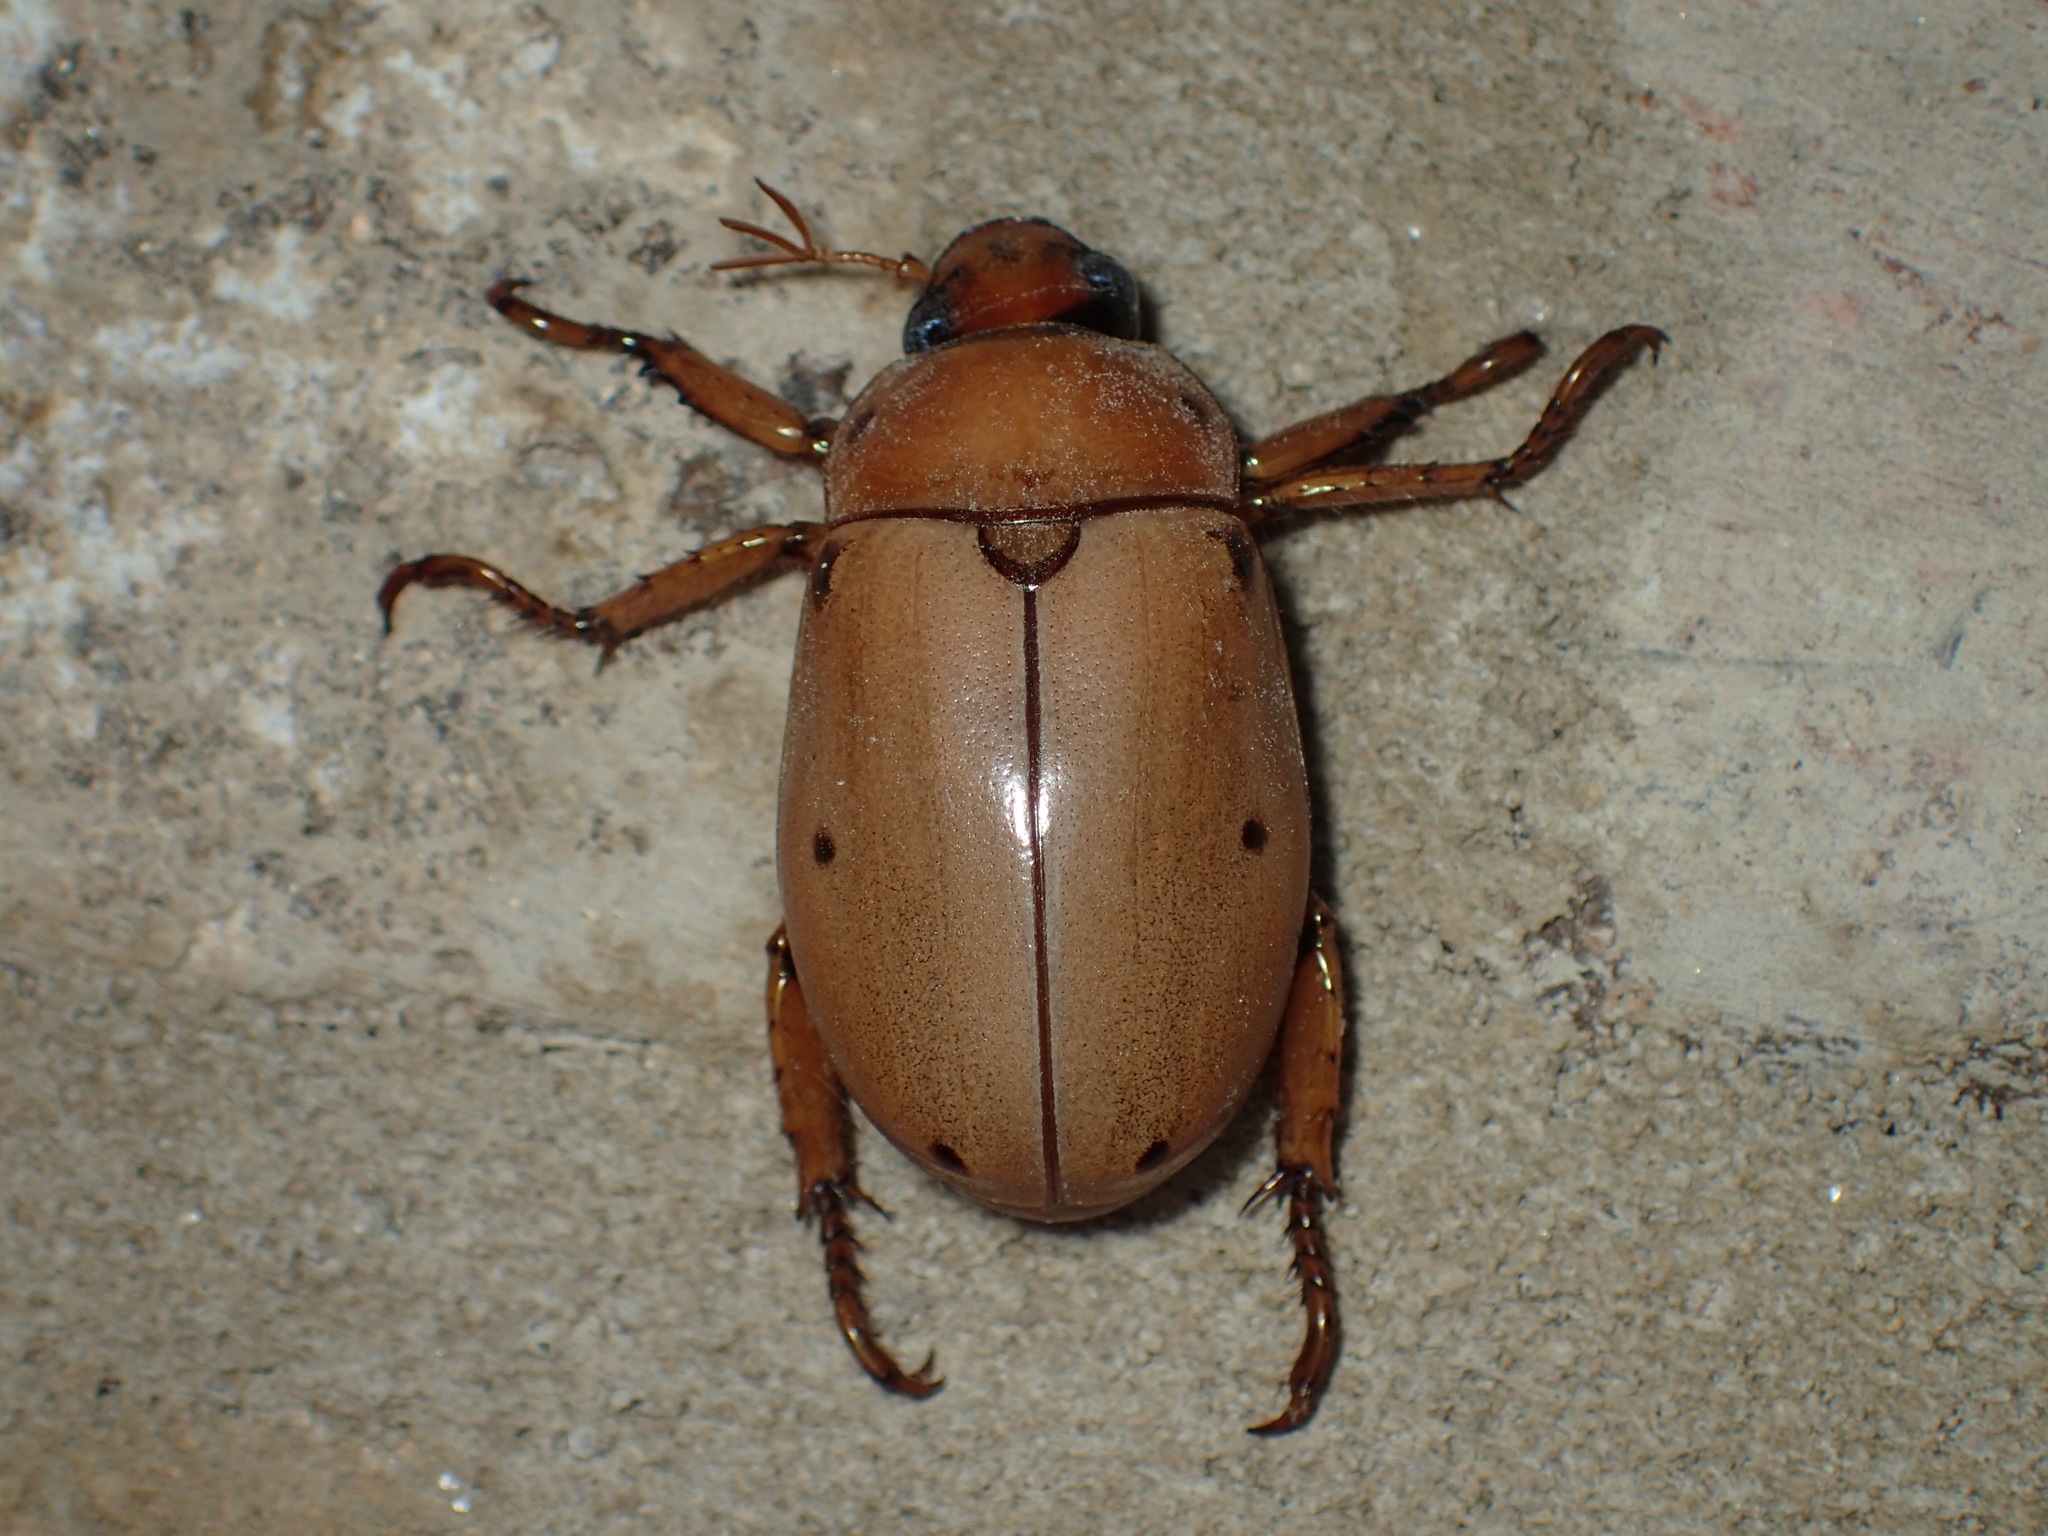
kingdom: Animalia
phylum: Arthropoda
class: Insecta
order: Coleoptera
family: Scarabaeidae
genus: Pelidnota
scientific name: Pelidnota punctata
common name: Grapevine beetle
